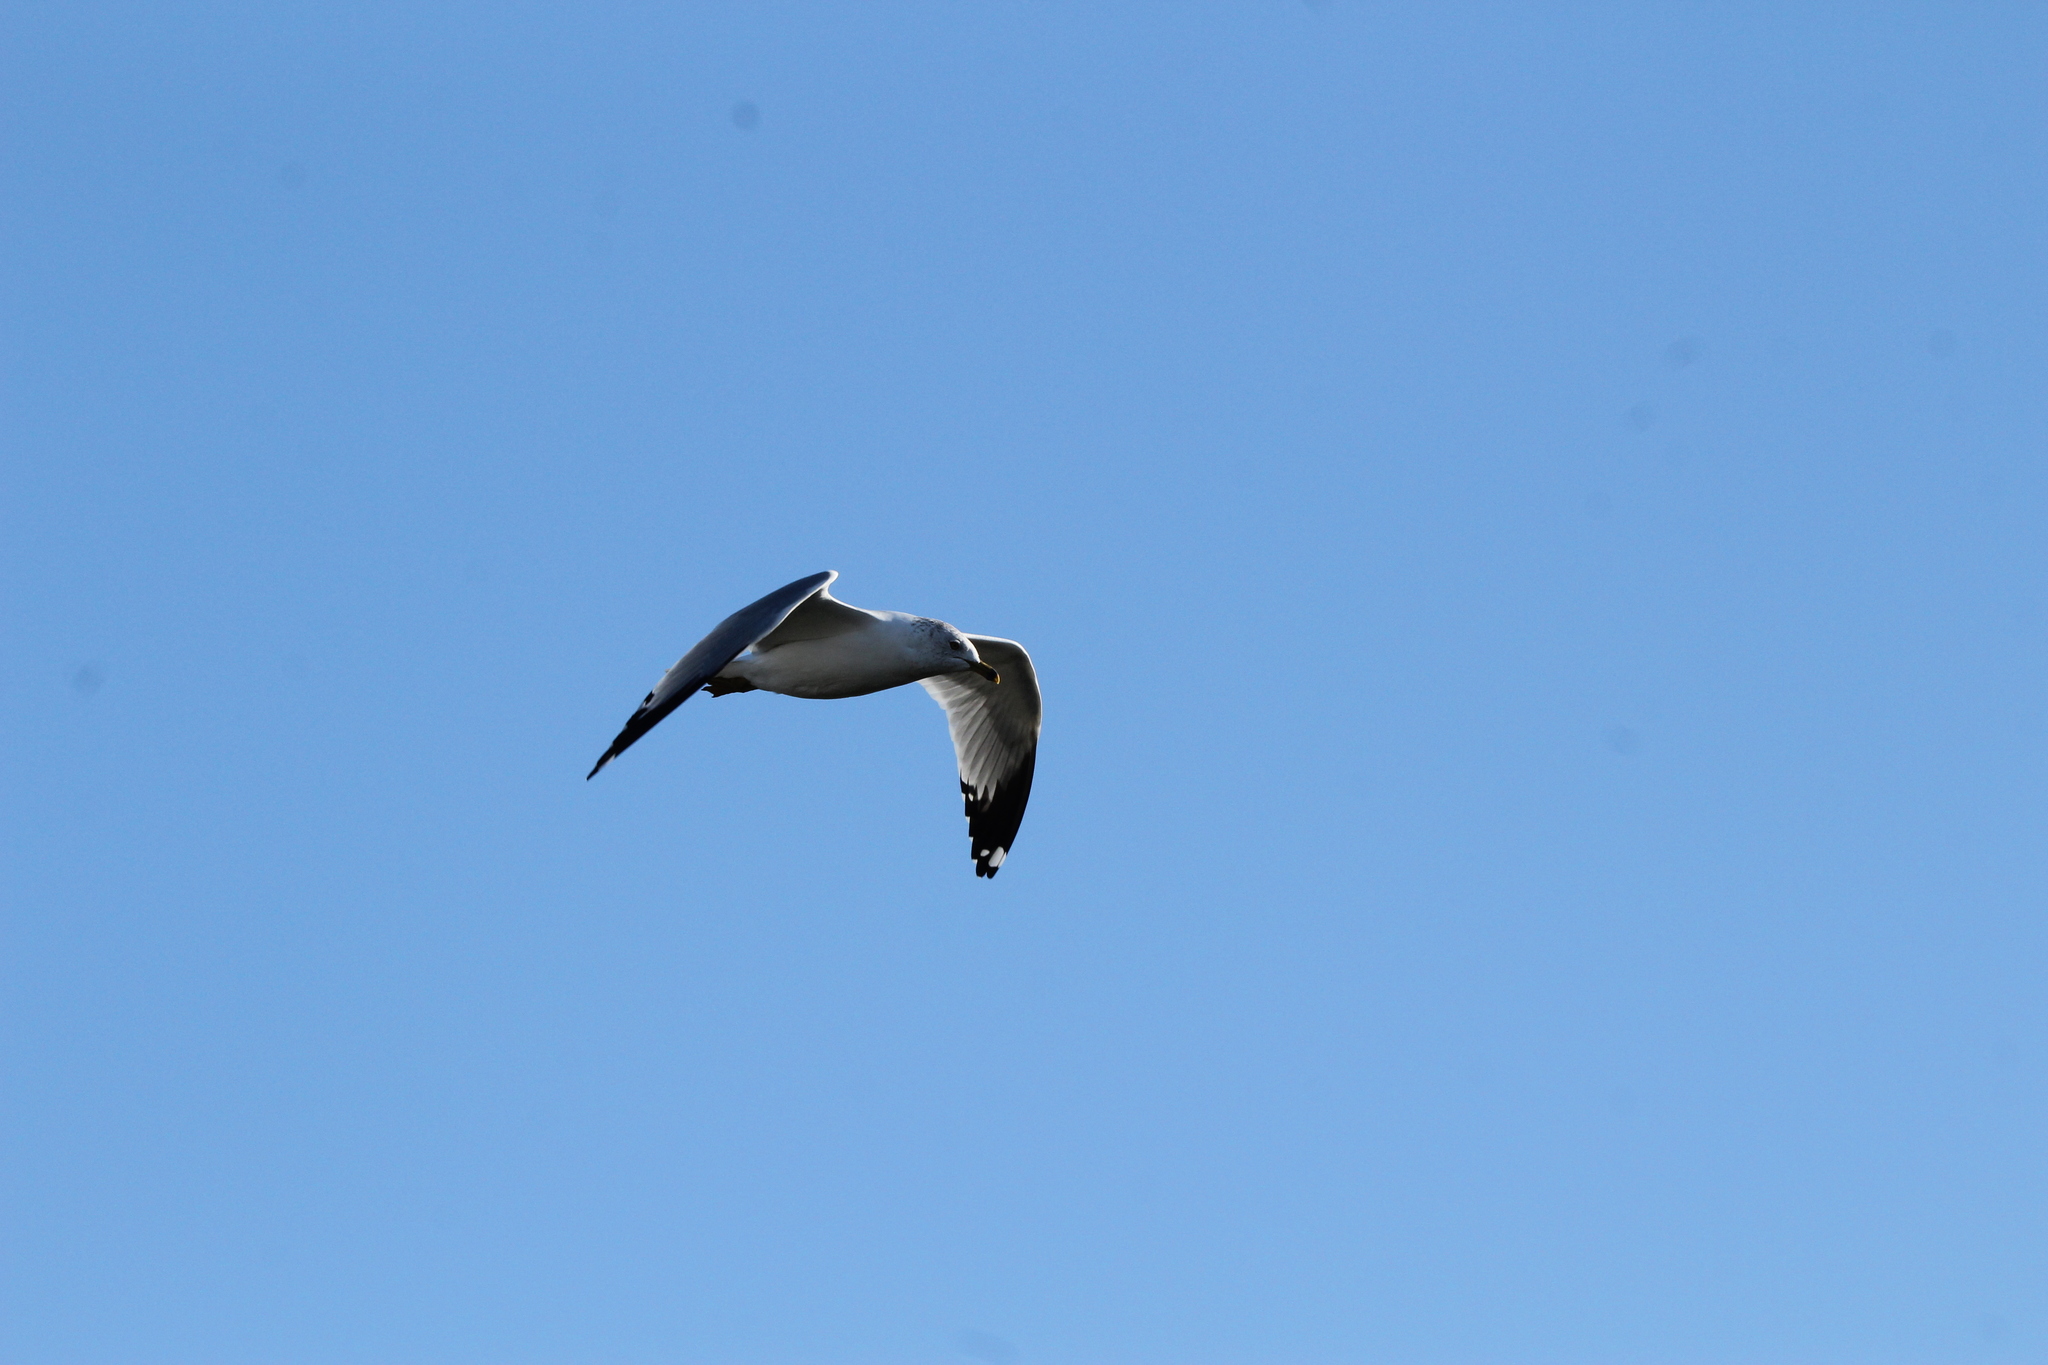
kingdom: Animalia
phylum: Chordata
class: Aves
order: Charadriiformes
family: Laridae
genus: Larus
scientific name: Larus delawarensis
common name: Ring-billed gull
